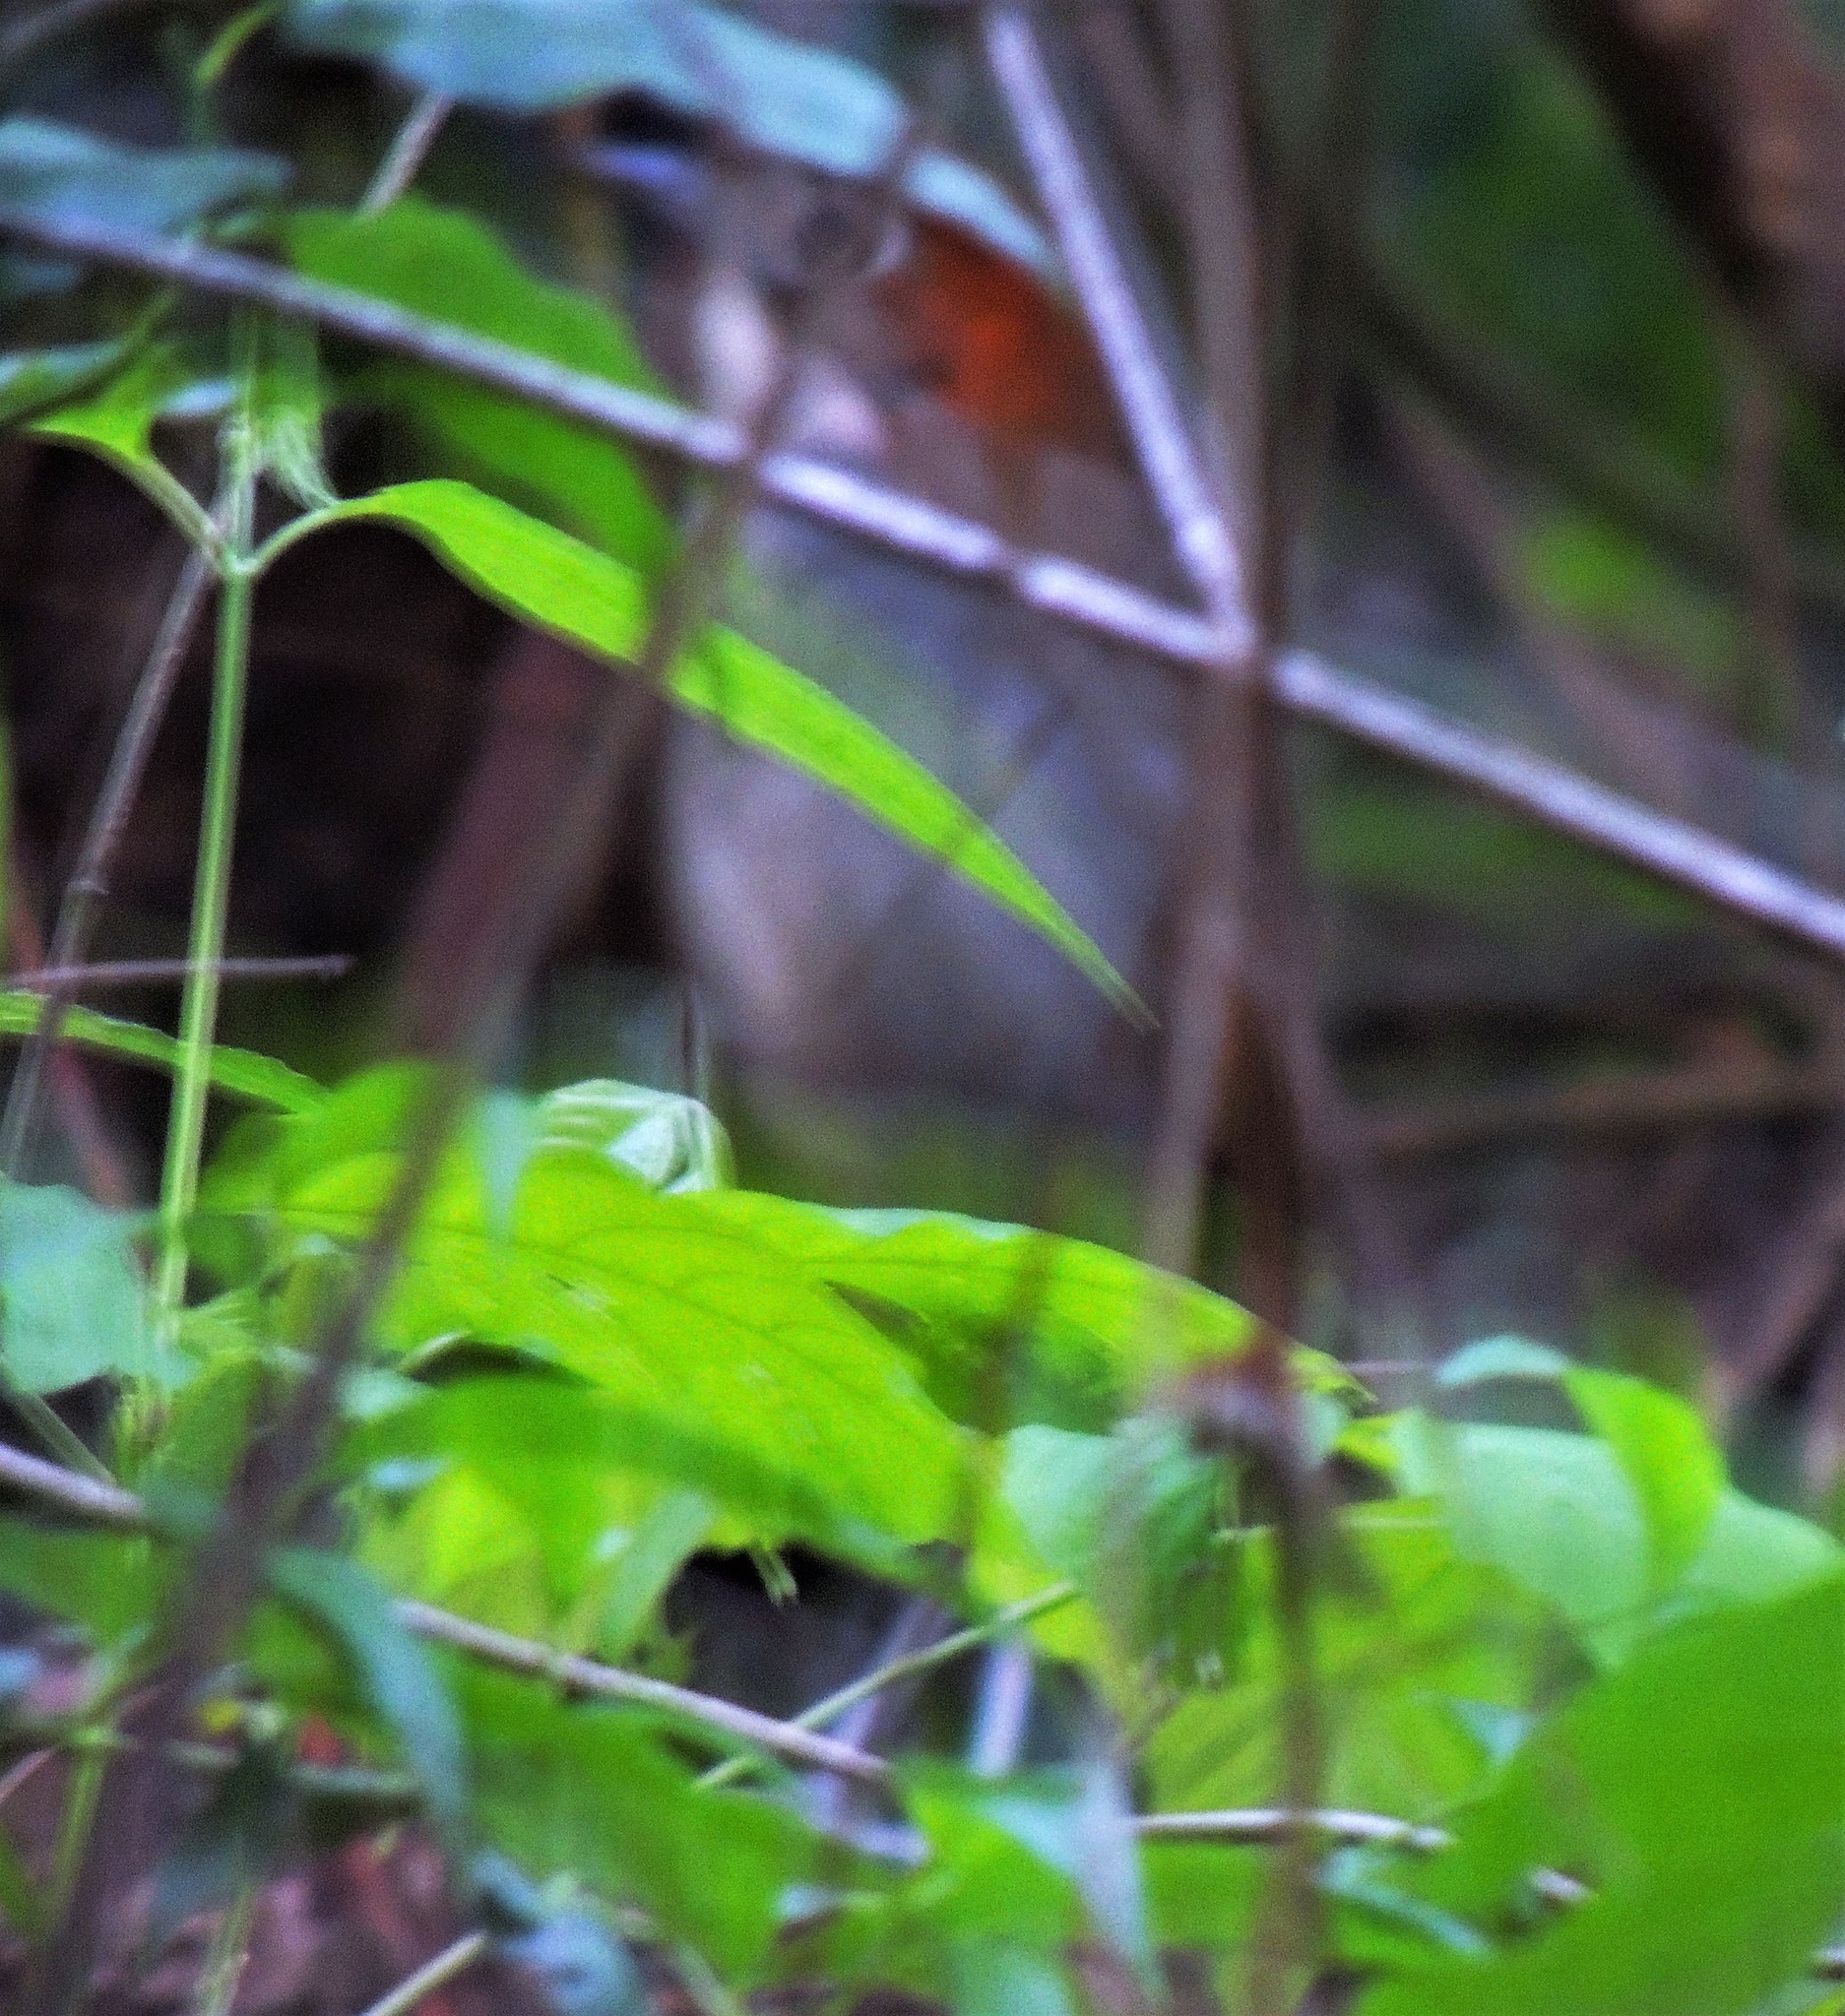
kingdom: Animalia
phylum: Chordata
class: Aves
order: Passeriformes
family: Grallariidae
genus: Grallaria
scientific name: Grallaria albigula
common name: White-throated antpitta
